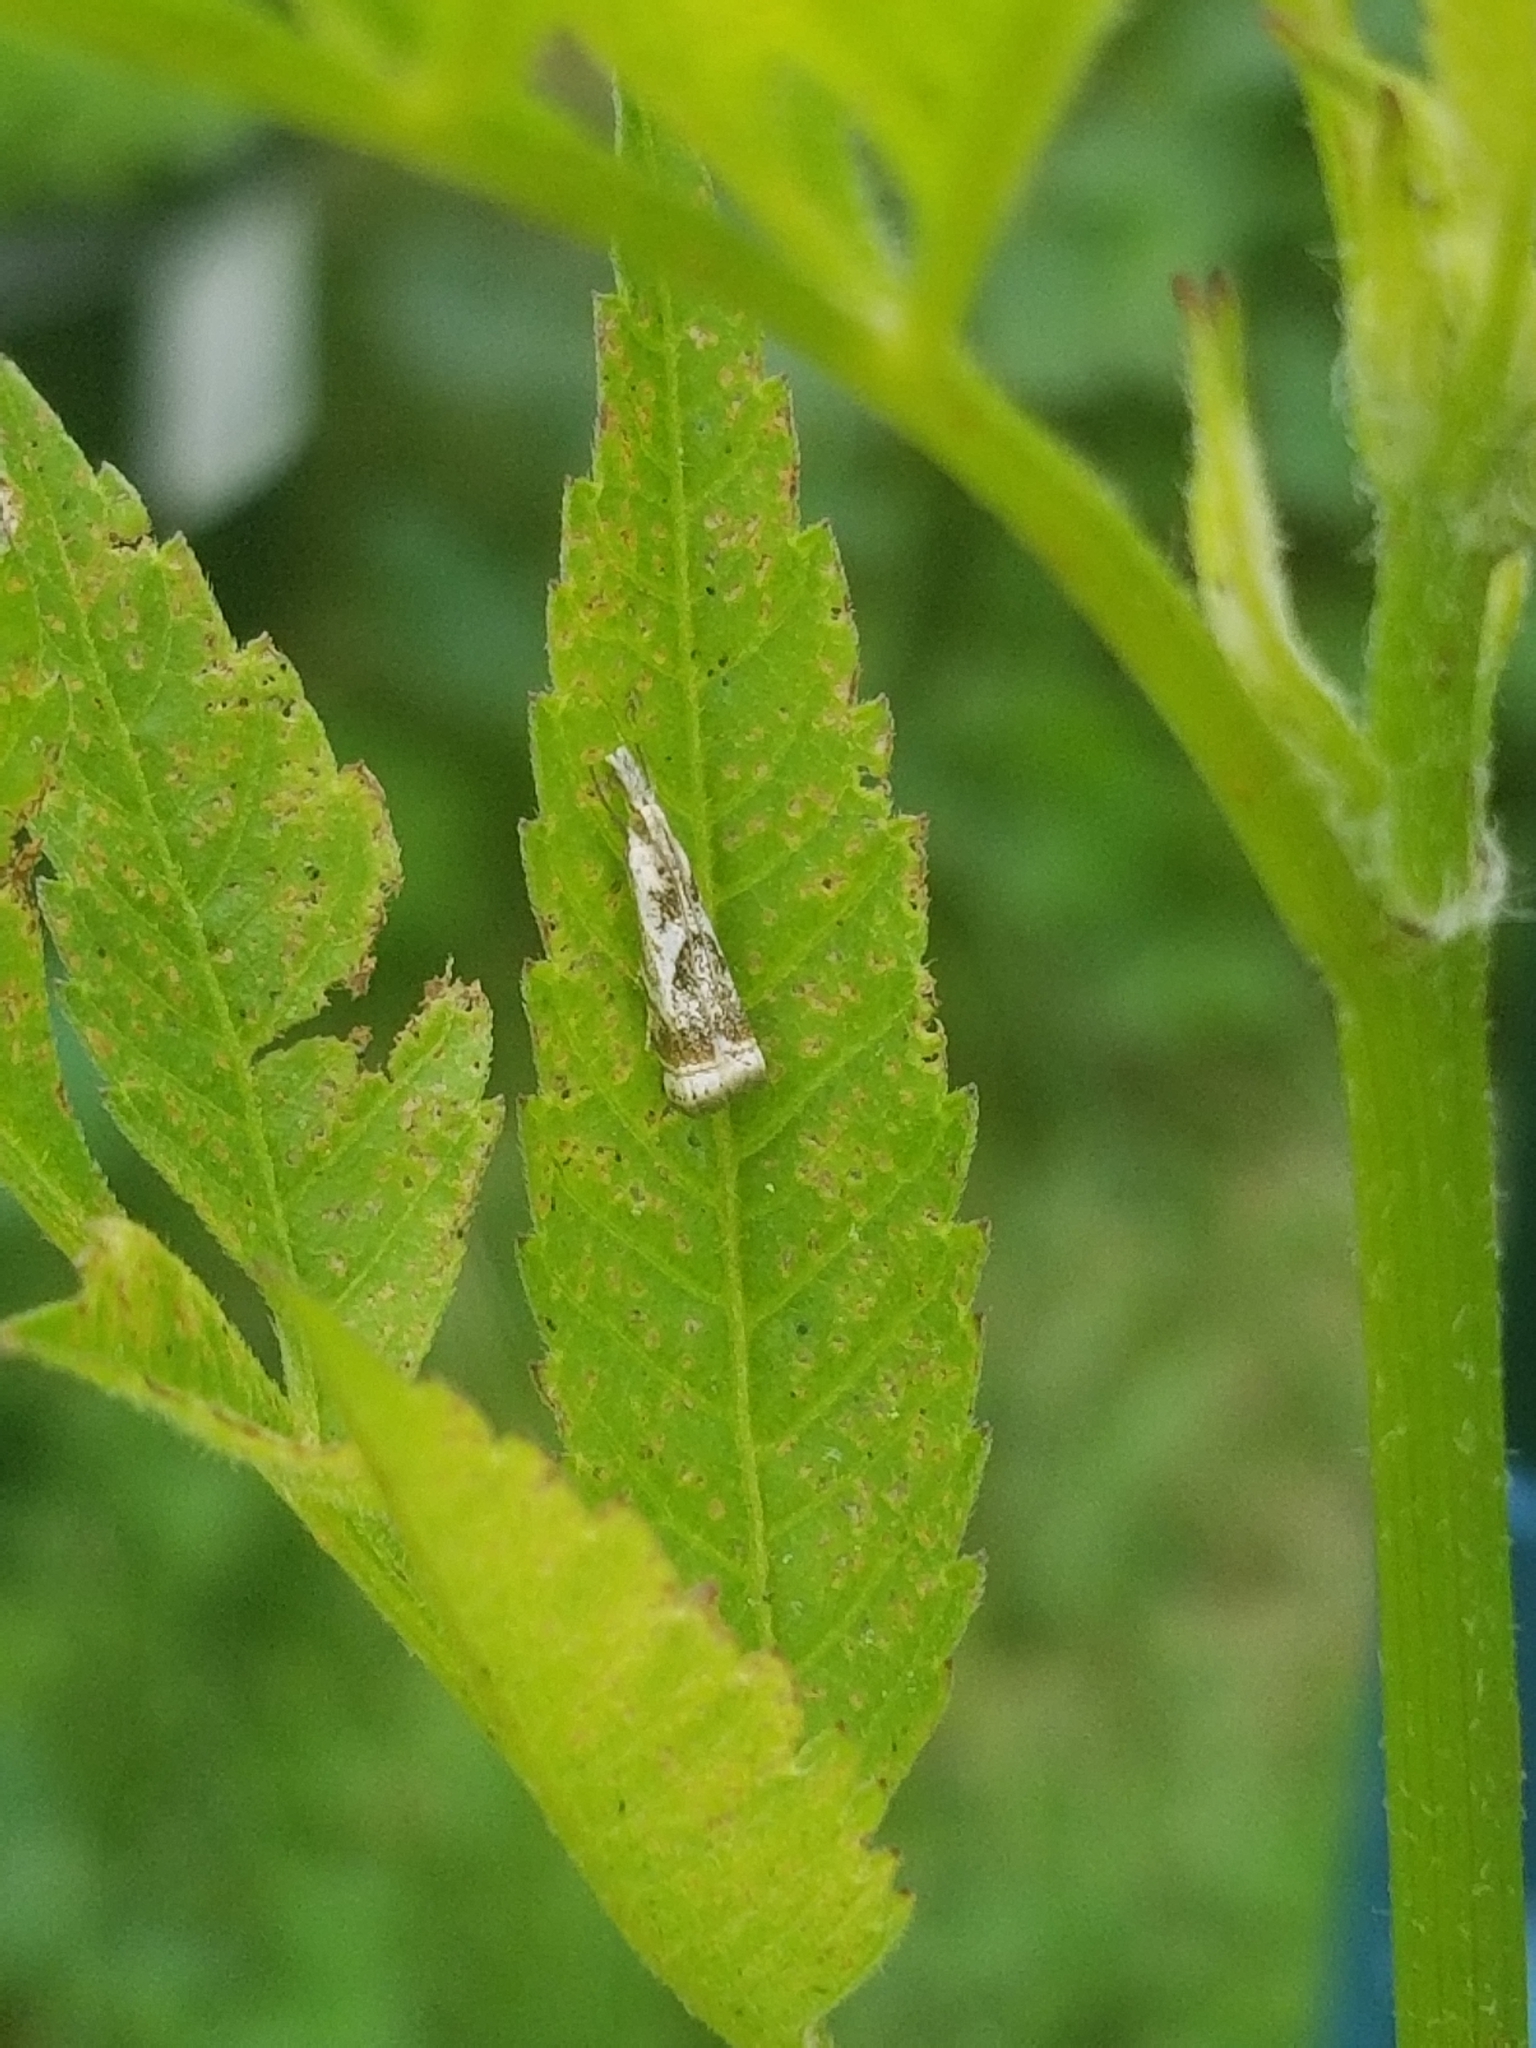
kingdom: Animalia
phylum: Arthropoda
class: Insecta
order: Lepidoptera
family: Crambidae
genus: Microcrambus
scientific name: Microcrambus elegans
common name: Elegant grass-veneer
